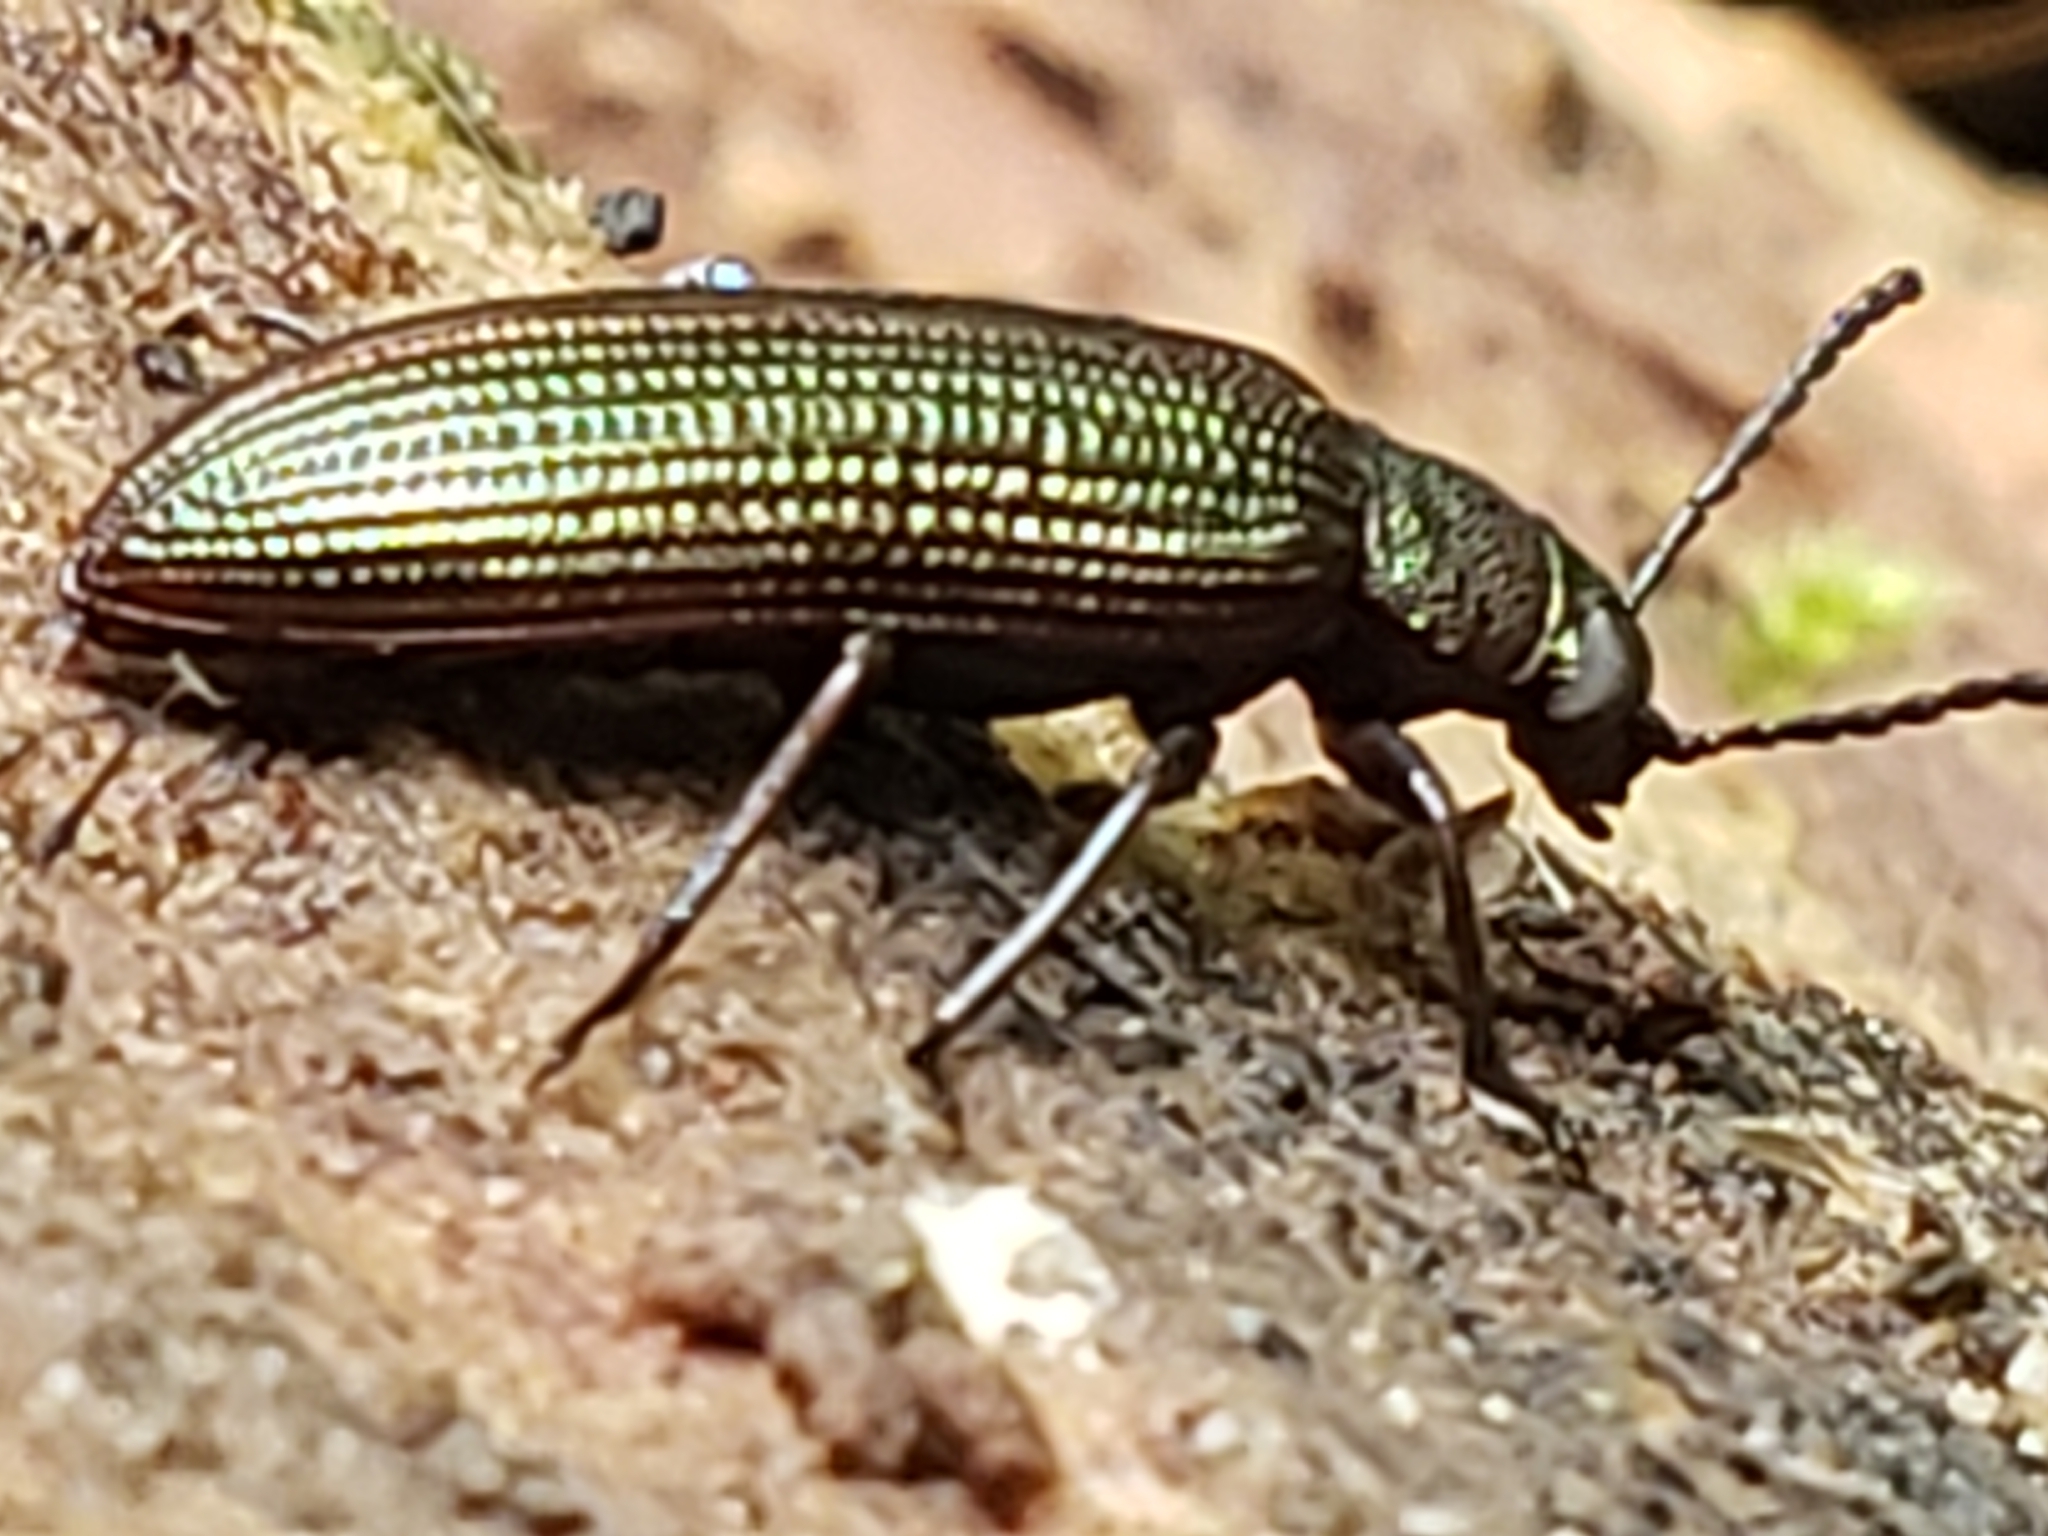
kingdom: Animalia
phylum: Arthropoda
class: Insecta
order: Coleoptera
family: Tenebrionidae
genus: Strongylium
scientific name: Strongylium
